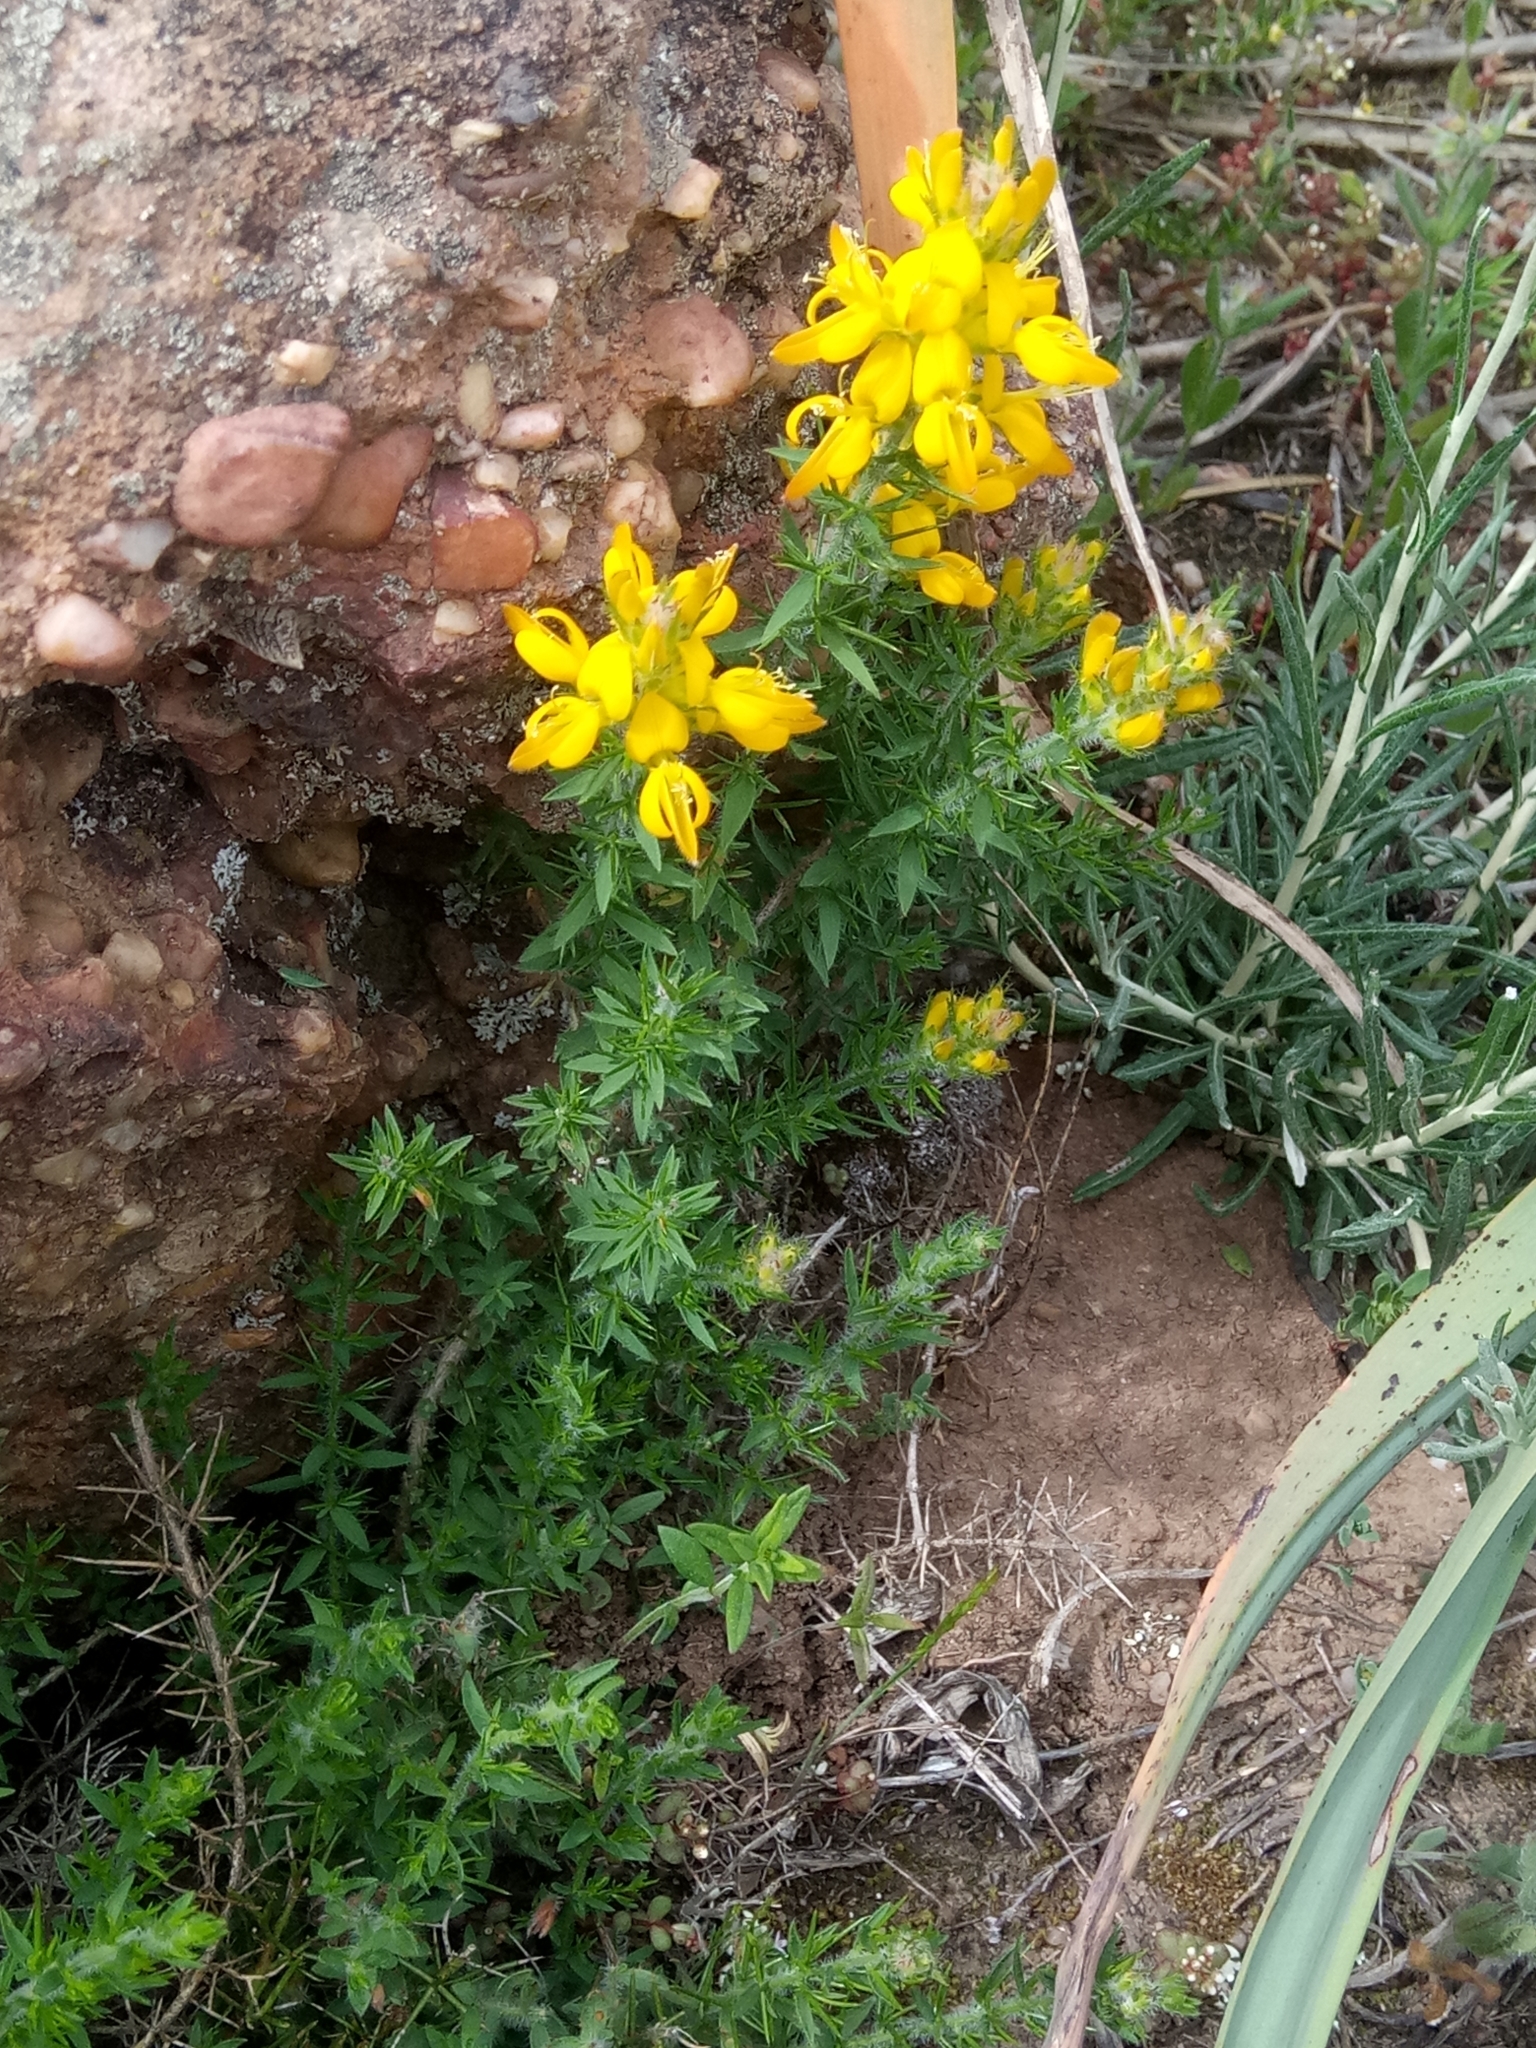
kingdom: Plantae
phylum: Tracheophyta
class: Magnoliopsida
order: Fabales
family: Fabaceae
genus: Genista
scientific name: Genista ulicina
